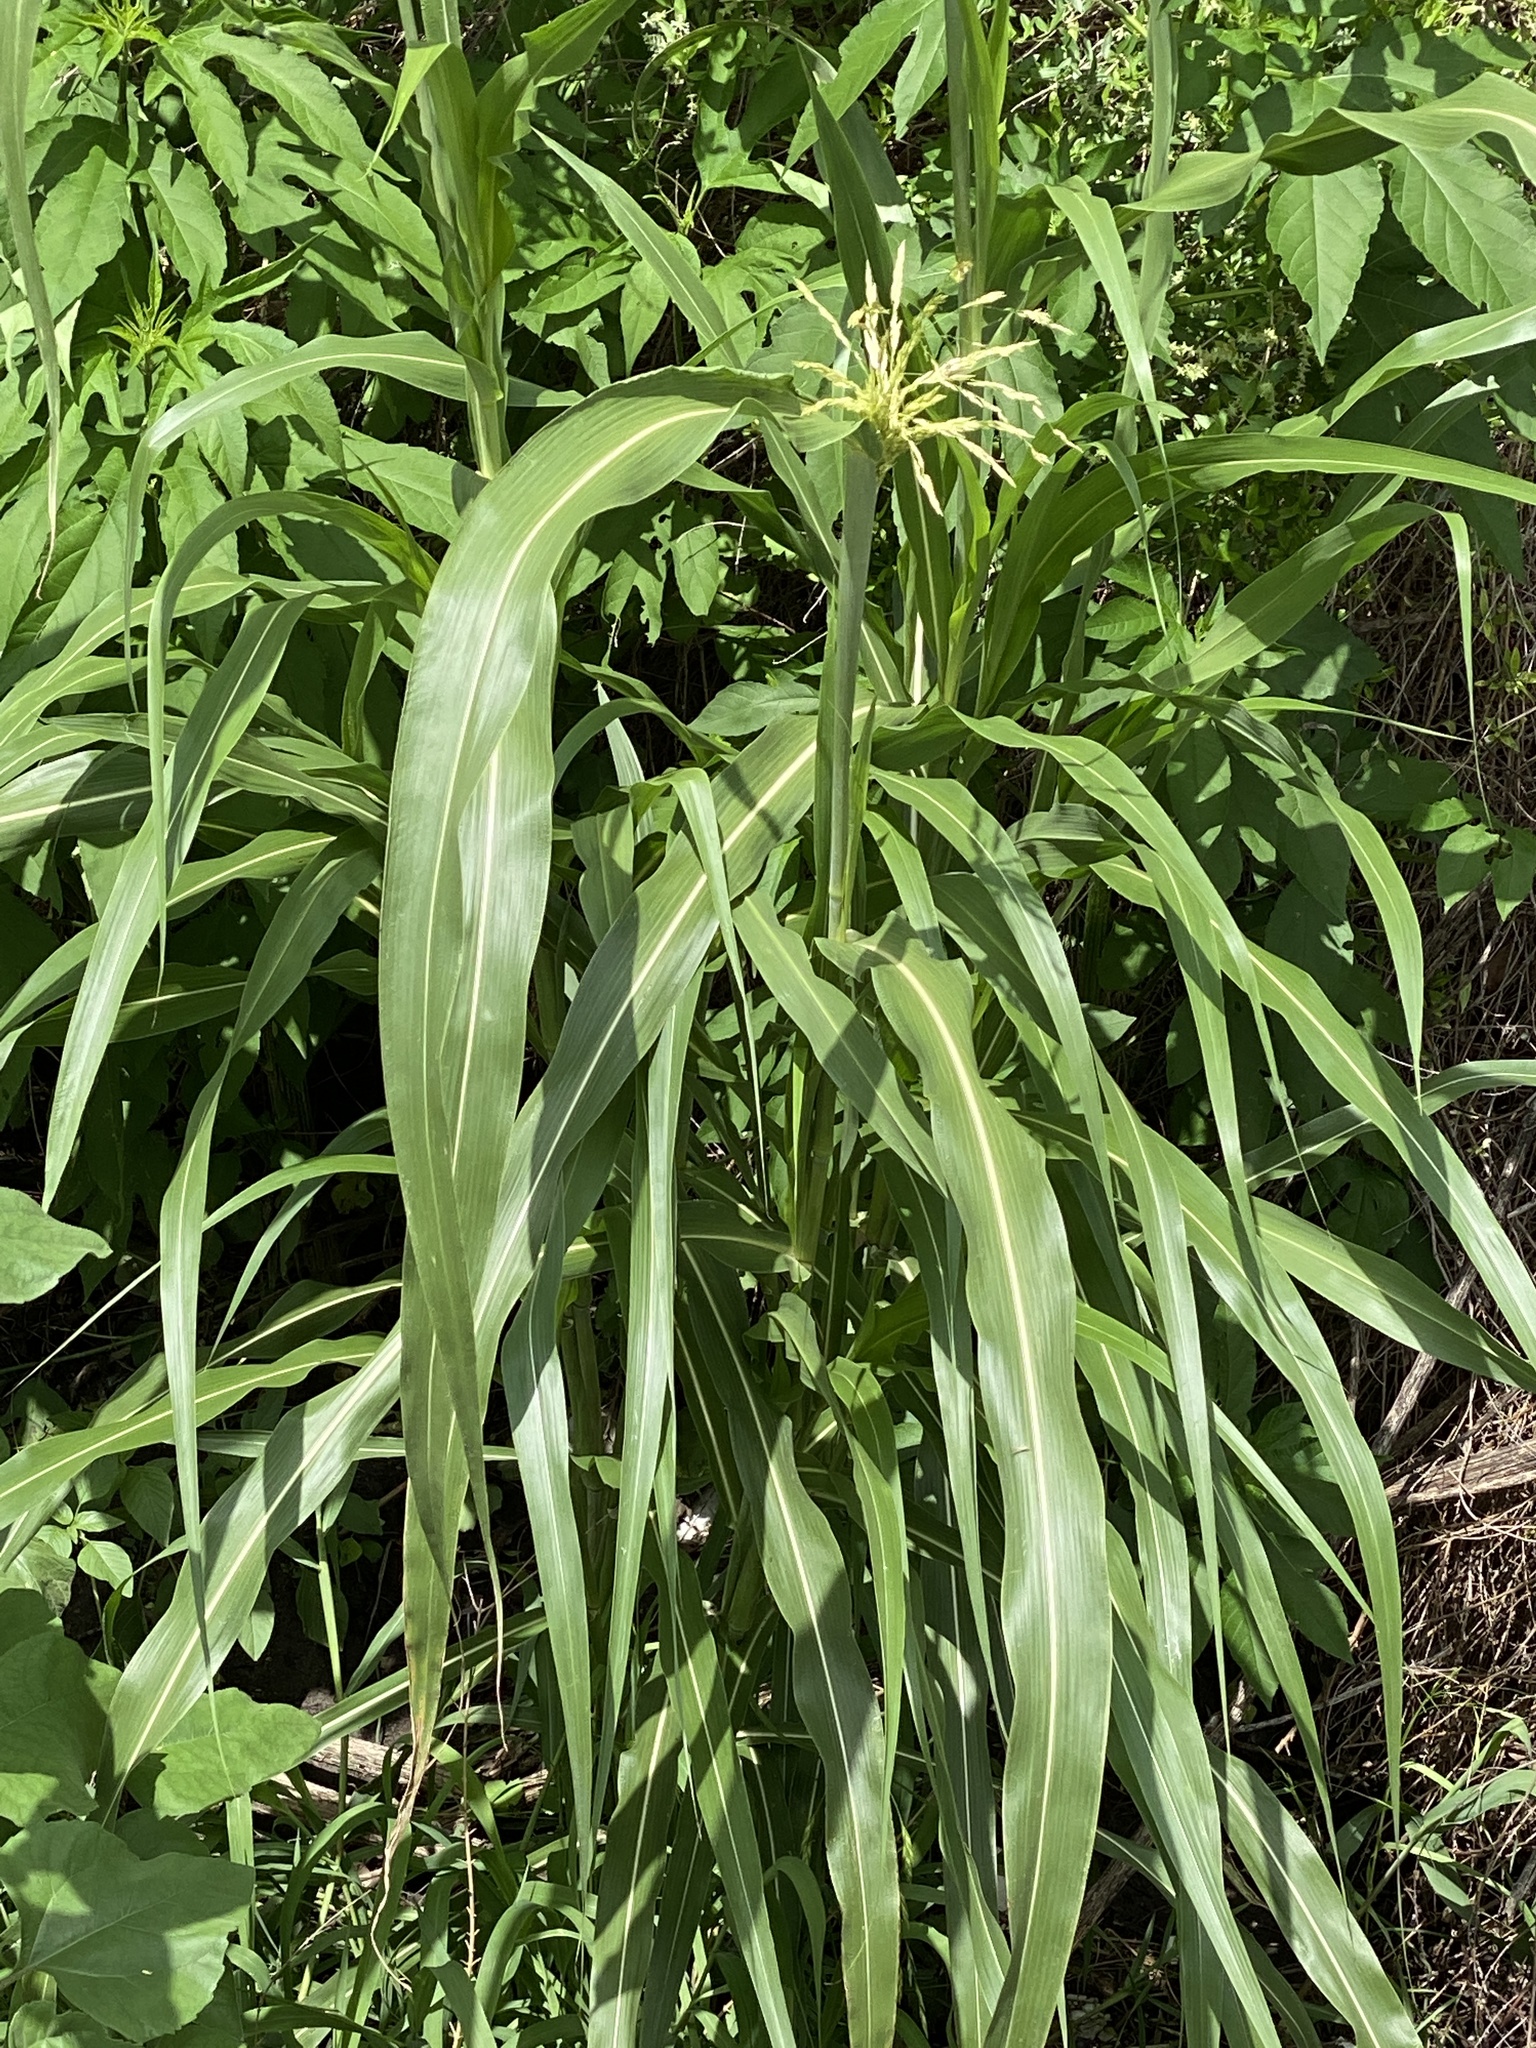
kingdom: Plantae
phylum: Tracheophyta
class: Liliopsida
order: Poales
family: Poaceae
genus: Sorghum
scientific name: Sorghum halepense
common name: Johnson-grass
